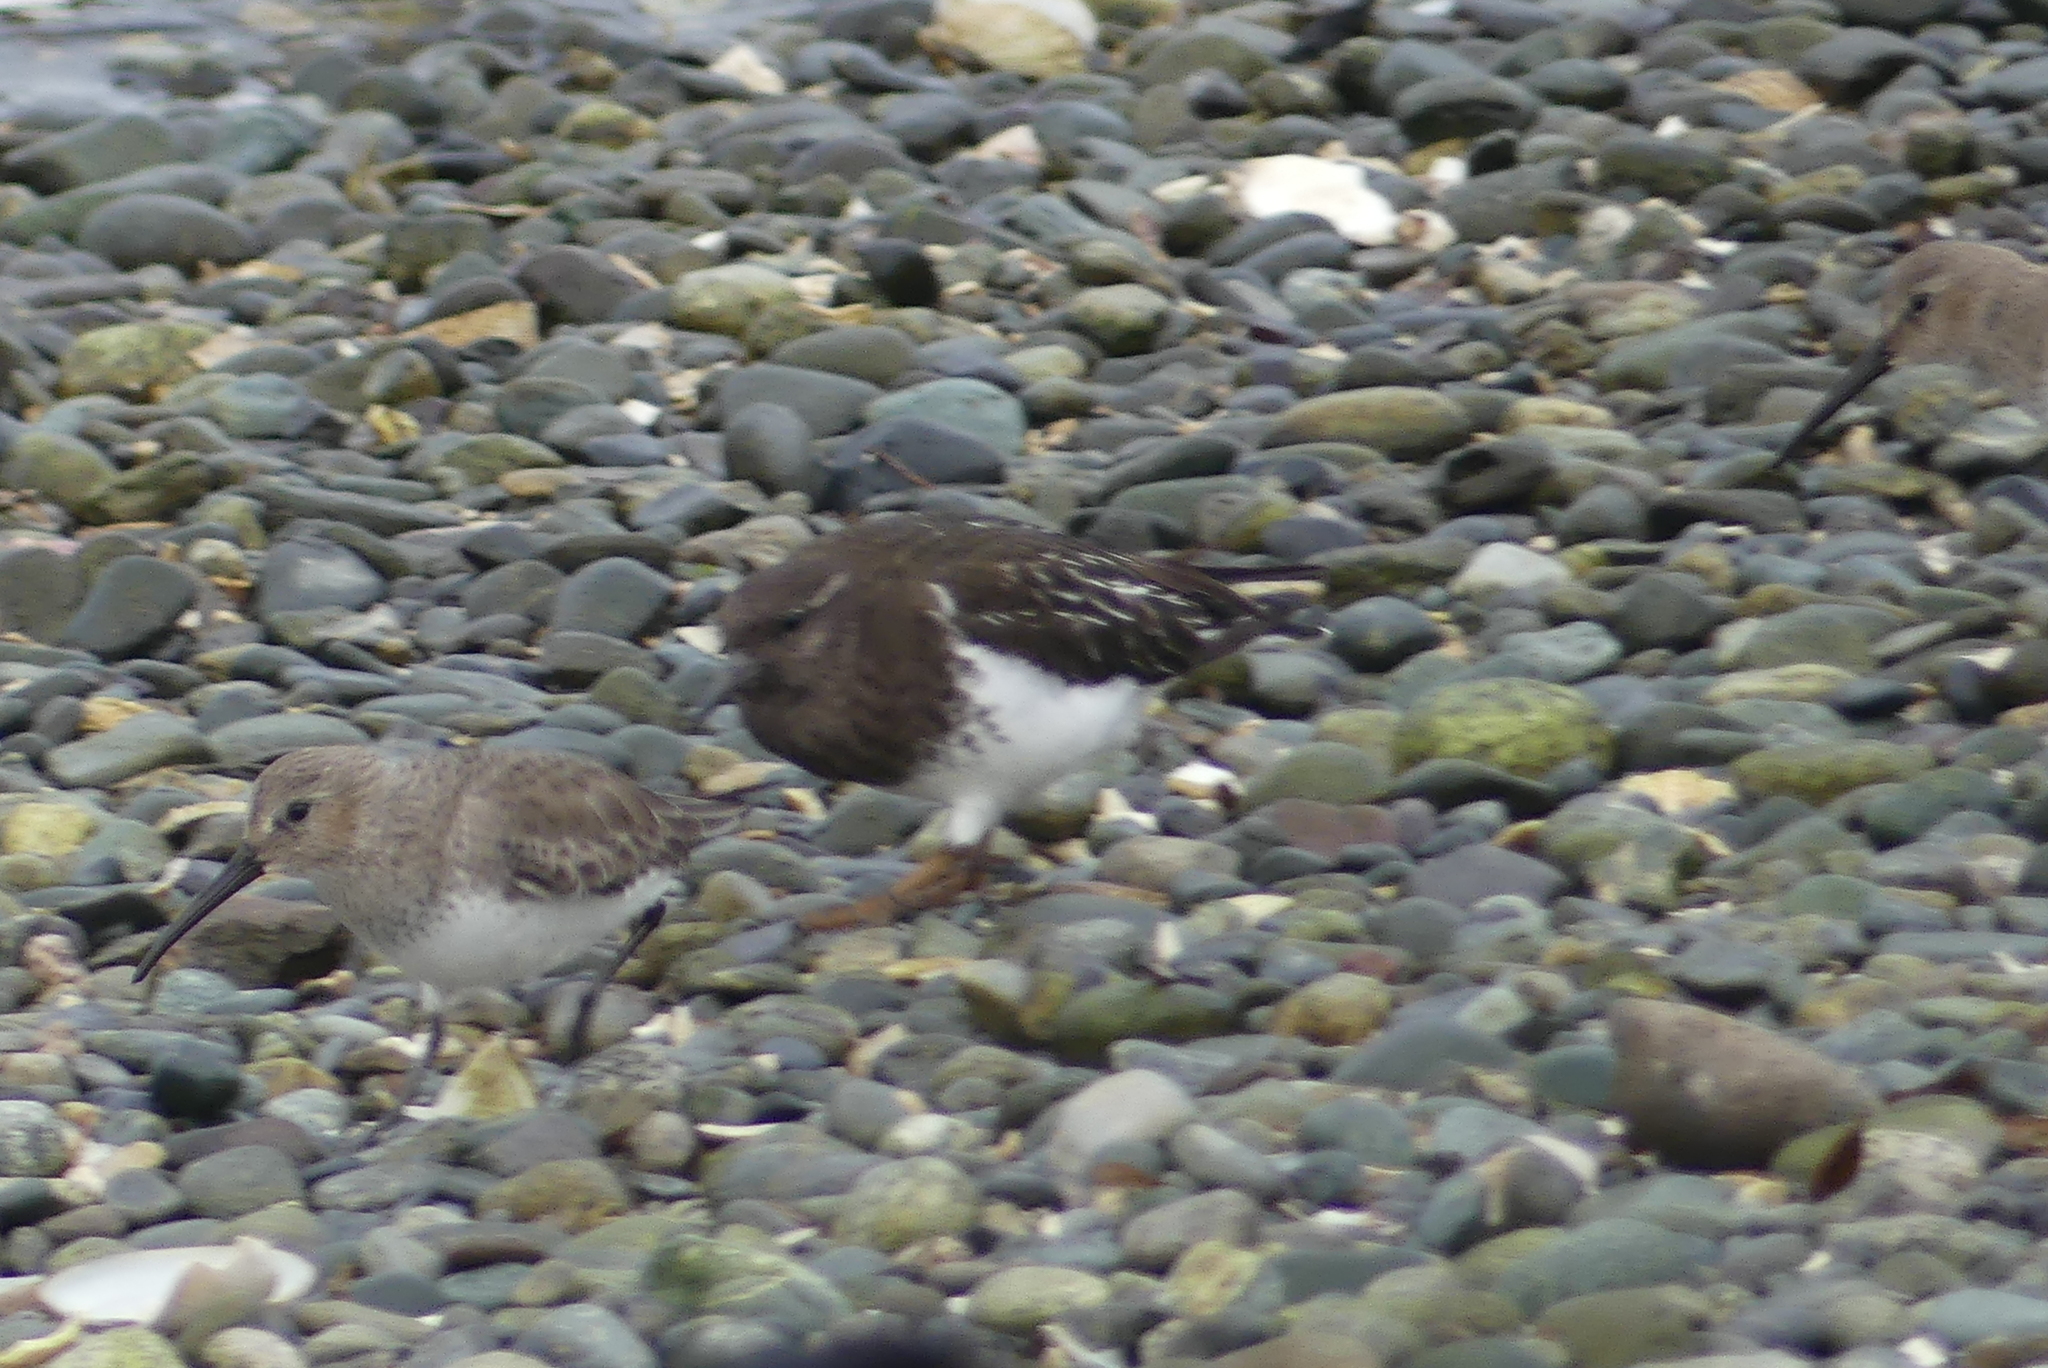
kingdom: Animalia
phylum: Chordata
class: Aves
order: Charadriiformes
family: Scolopacidae
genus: Calidris
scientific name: Calidris alpina
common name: Dunlin
